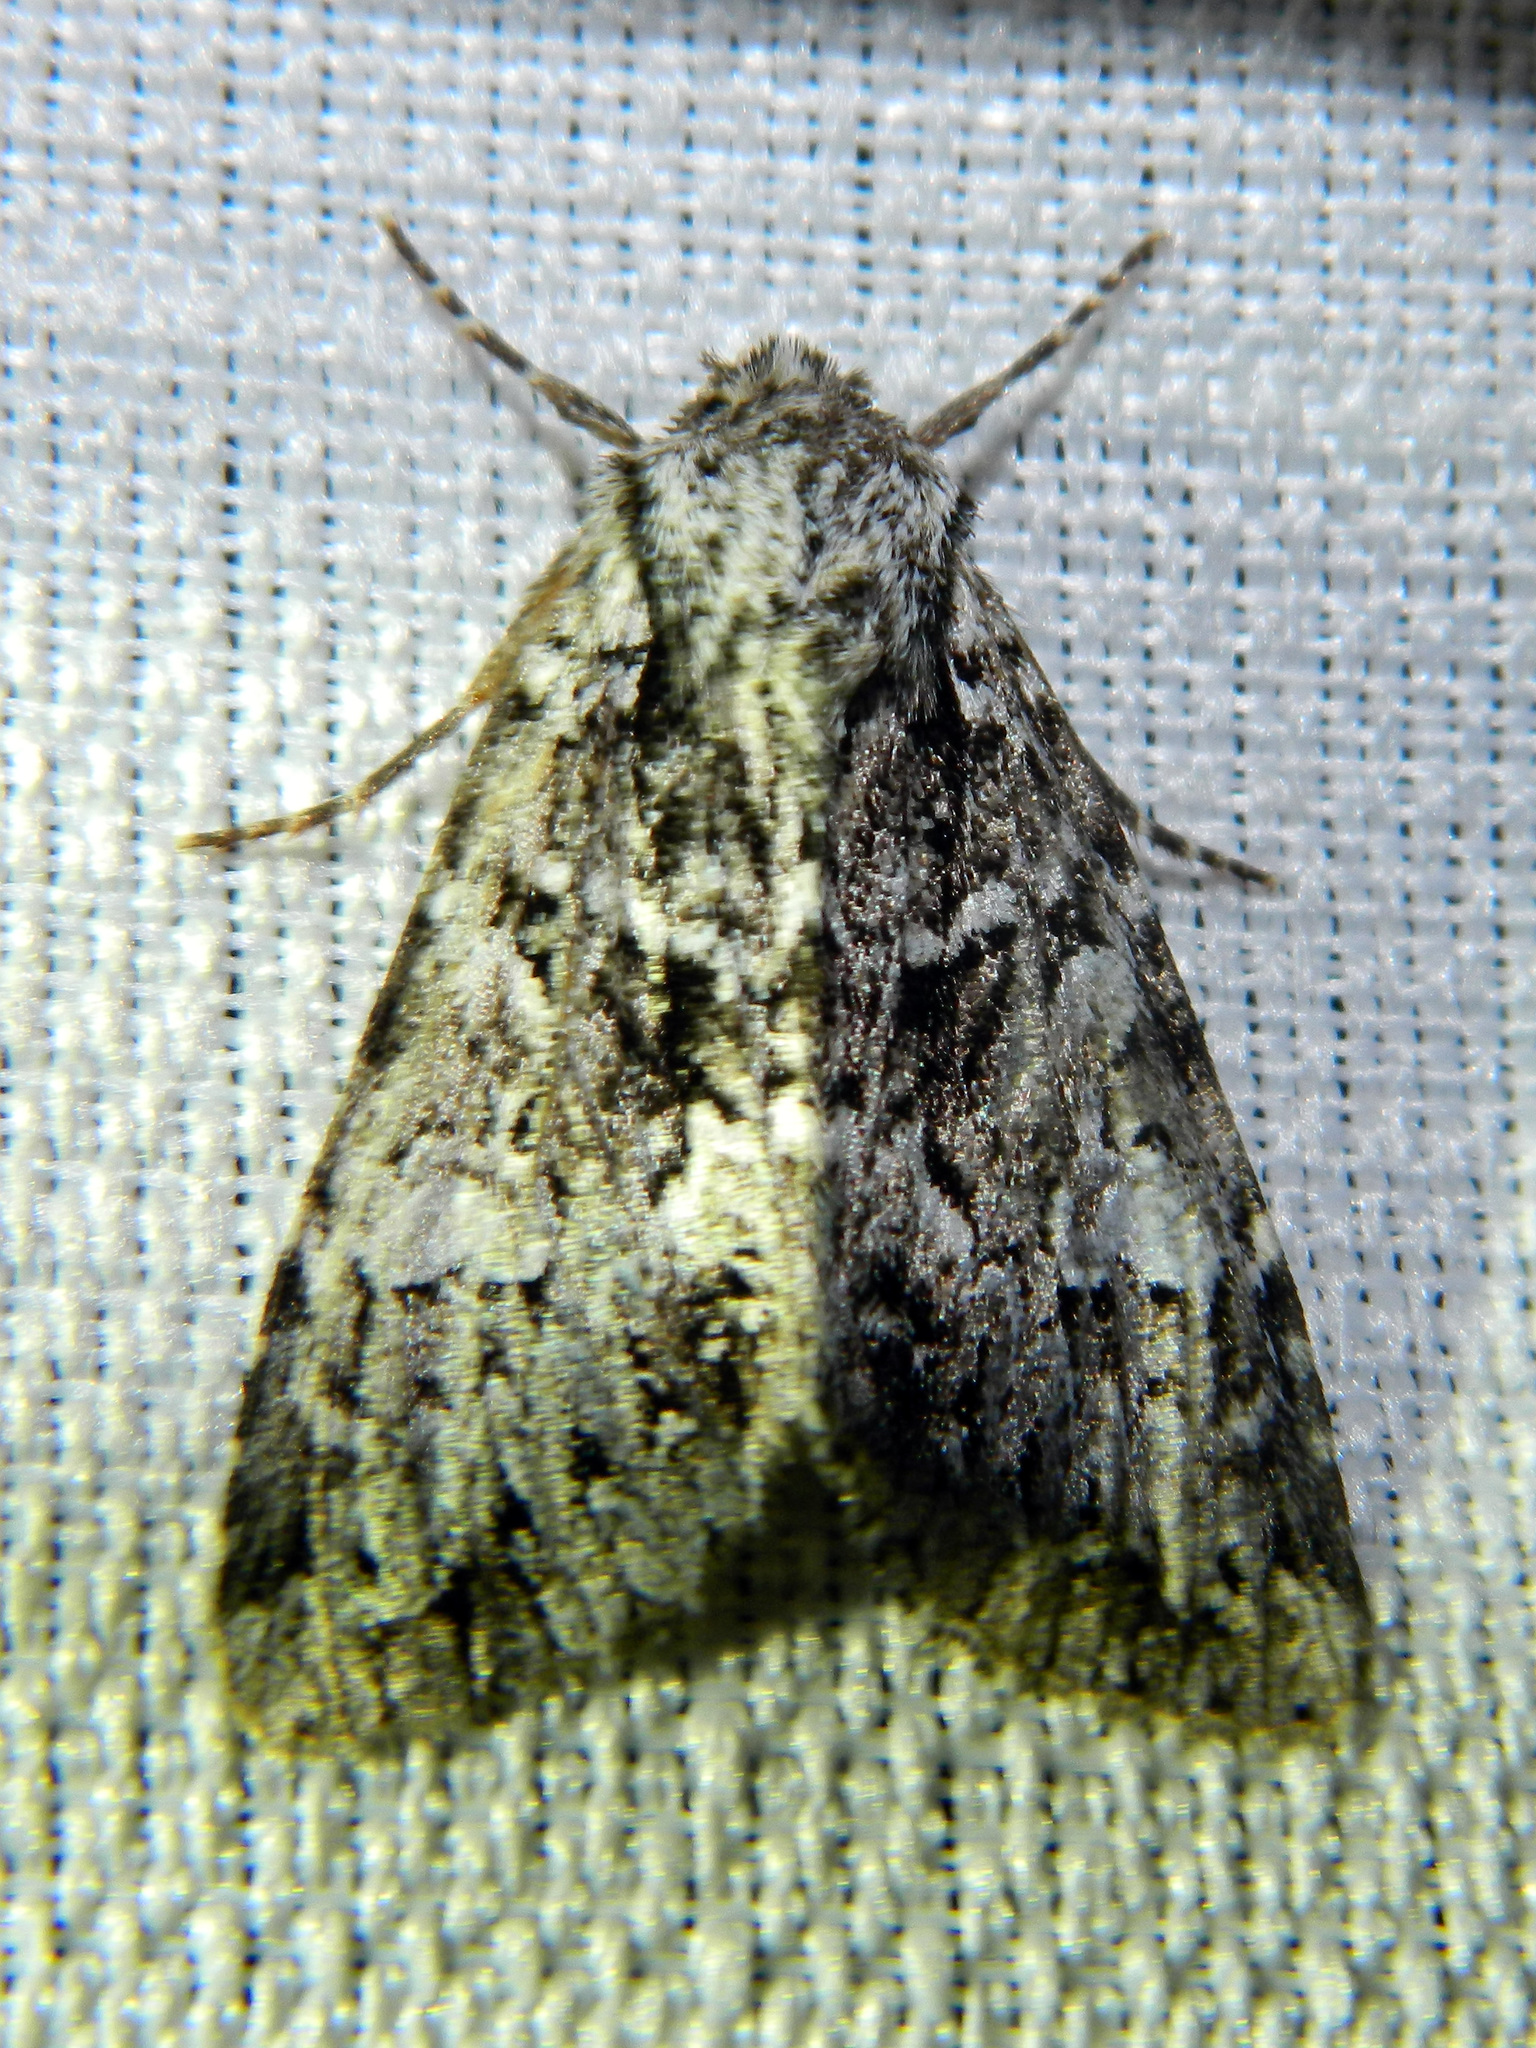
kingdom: Animalia
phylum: Arthropoda
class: Insecta
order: Lepidoptera
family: Noctuidae
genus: Platypolia
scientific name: Platypolia anceps
